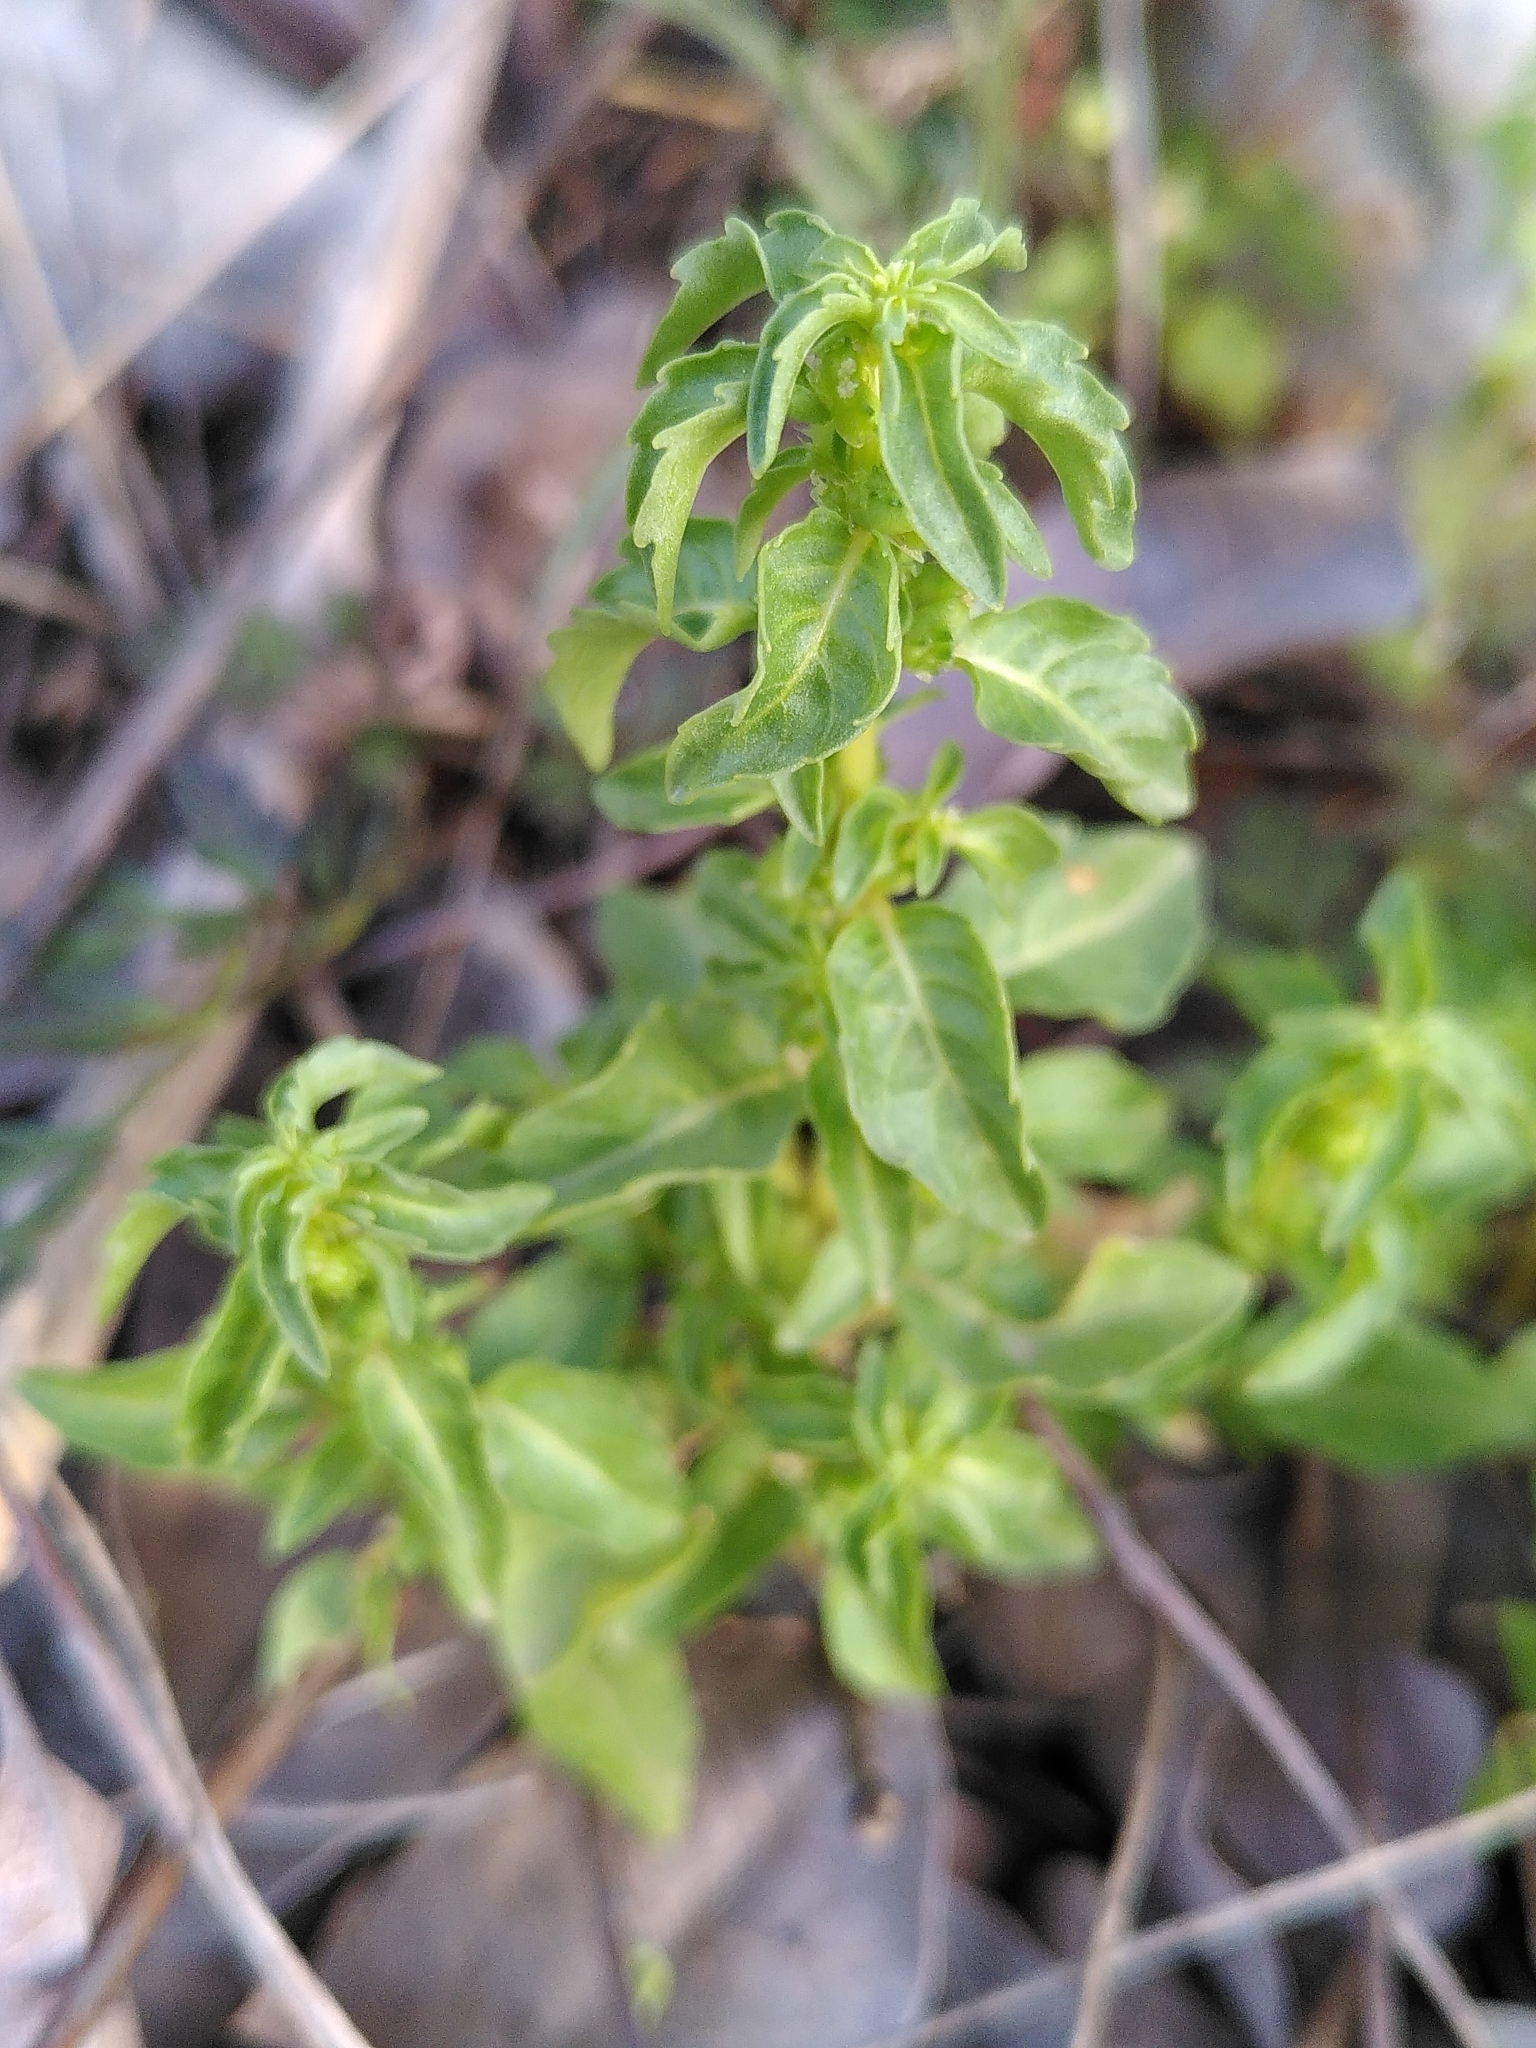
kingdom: Plantae
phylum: Tracheophyta
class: Magnoliopsida
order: Malpighiales
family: Euphorbiaceae
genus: Mercurialis
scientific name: Mercurialis huetii
